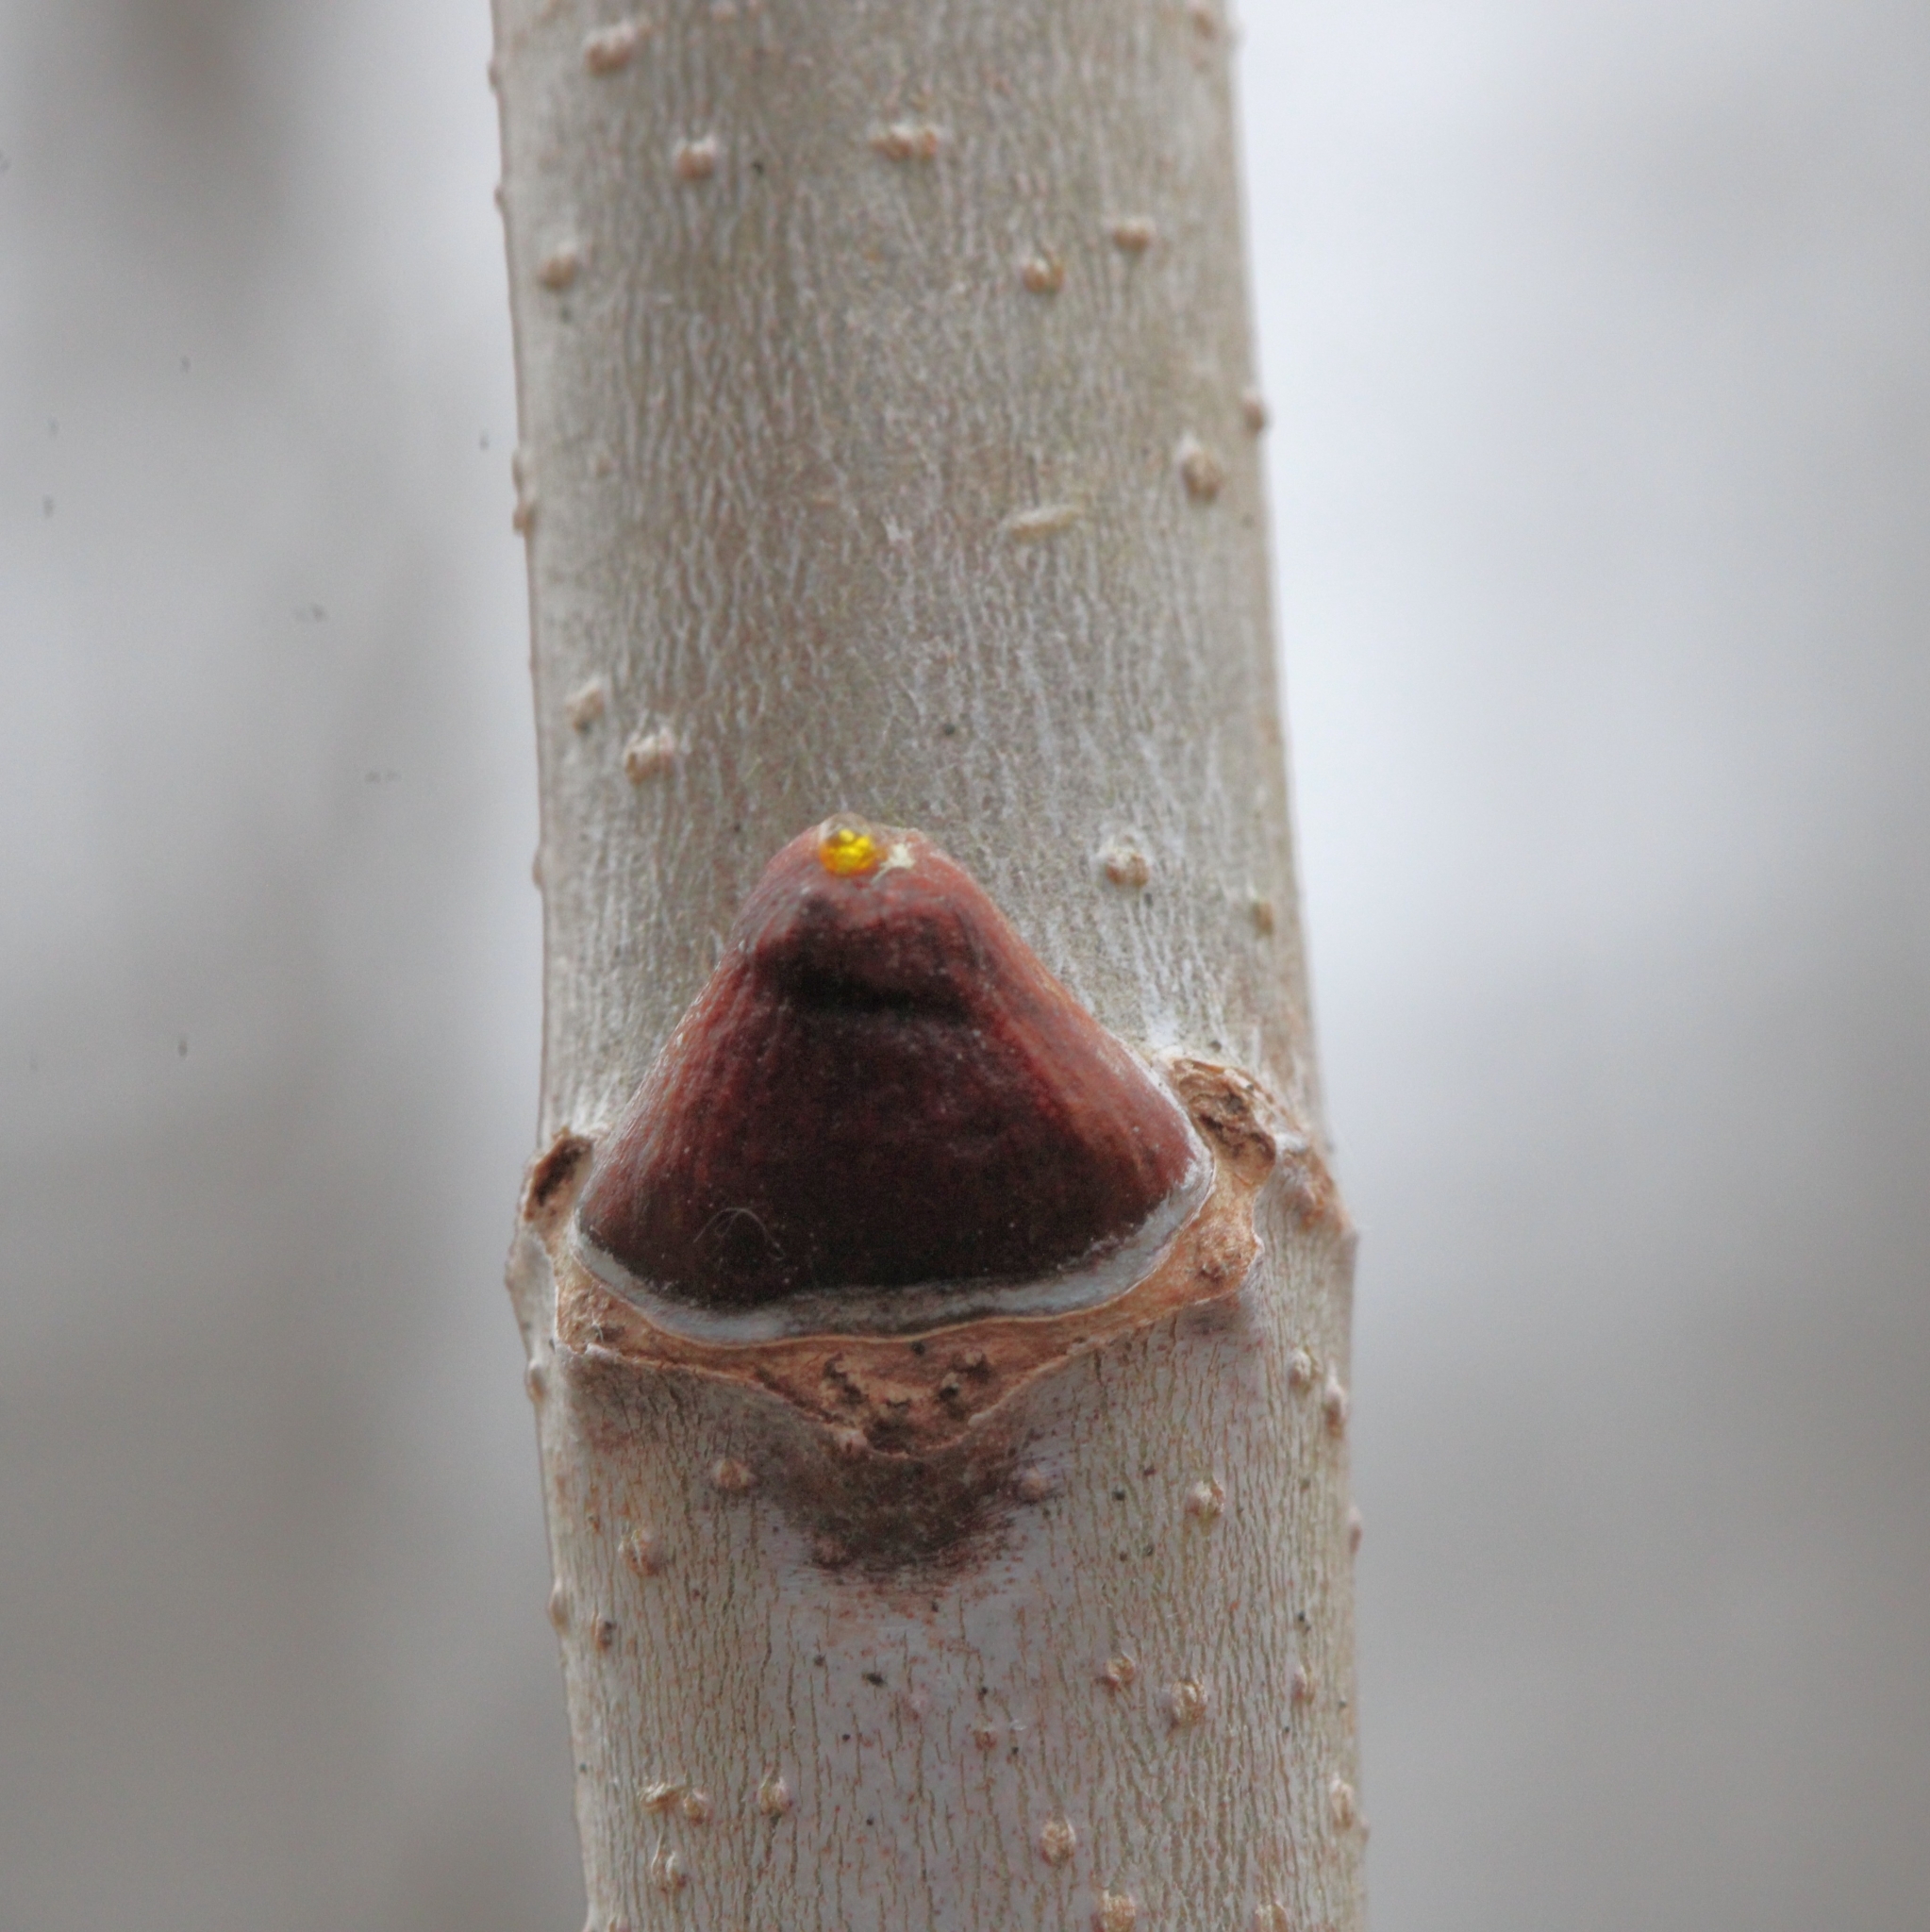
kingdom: Plantae
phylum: Tracheophyta
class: Magnoliopsida
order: Proteales
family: Platanaceae
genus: Platanus
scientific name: Platanus occidentalis
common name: American sycamore
